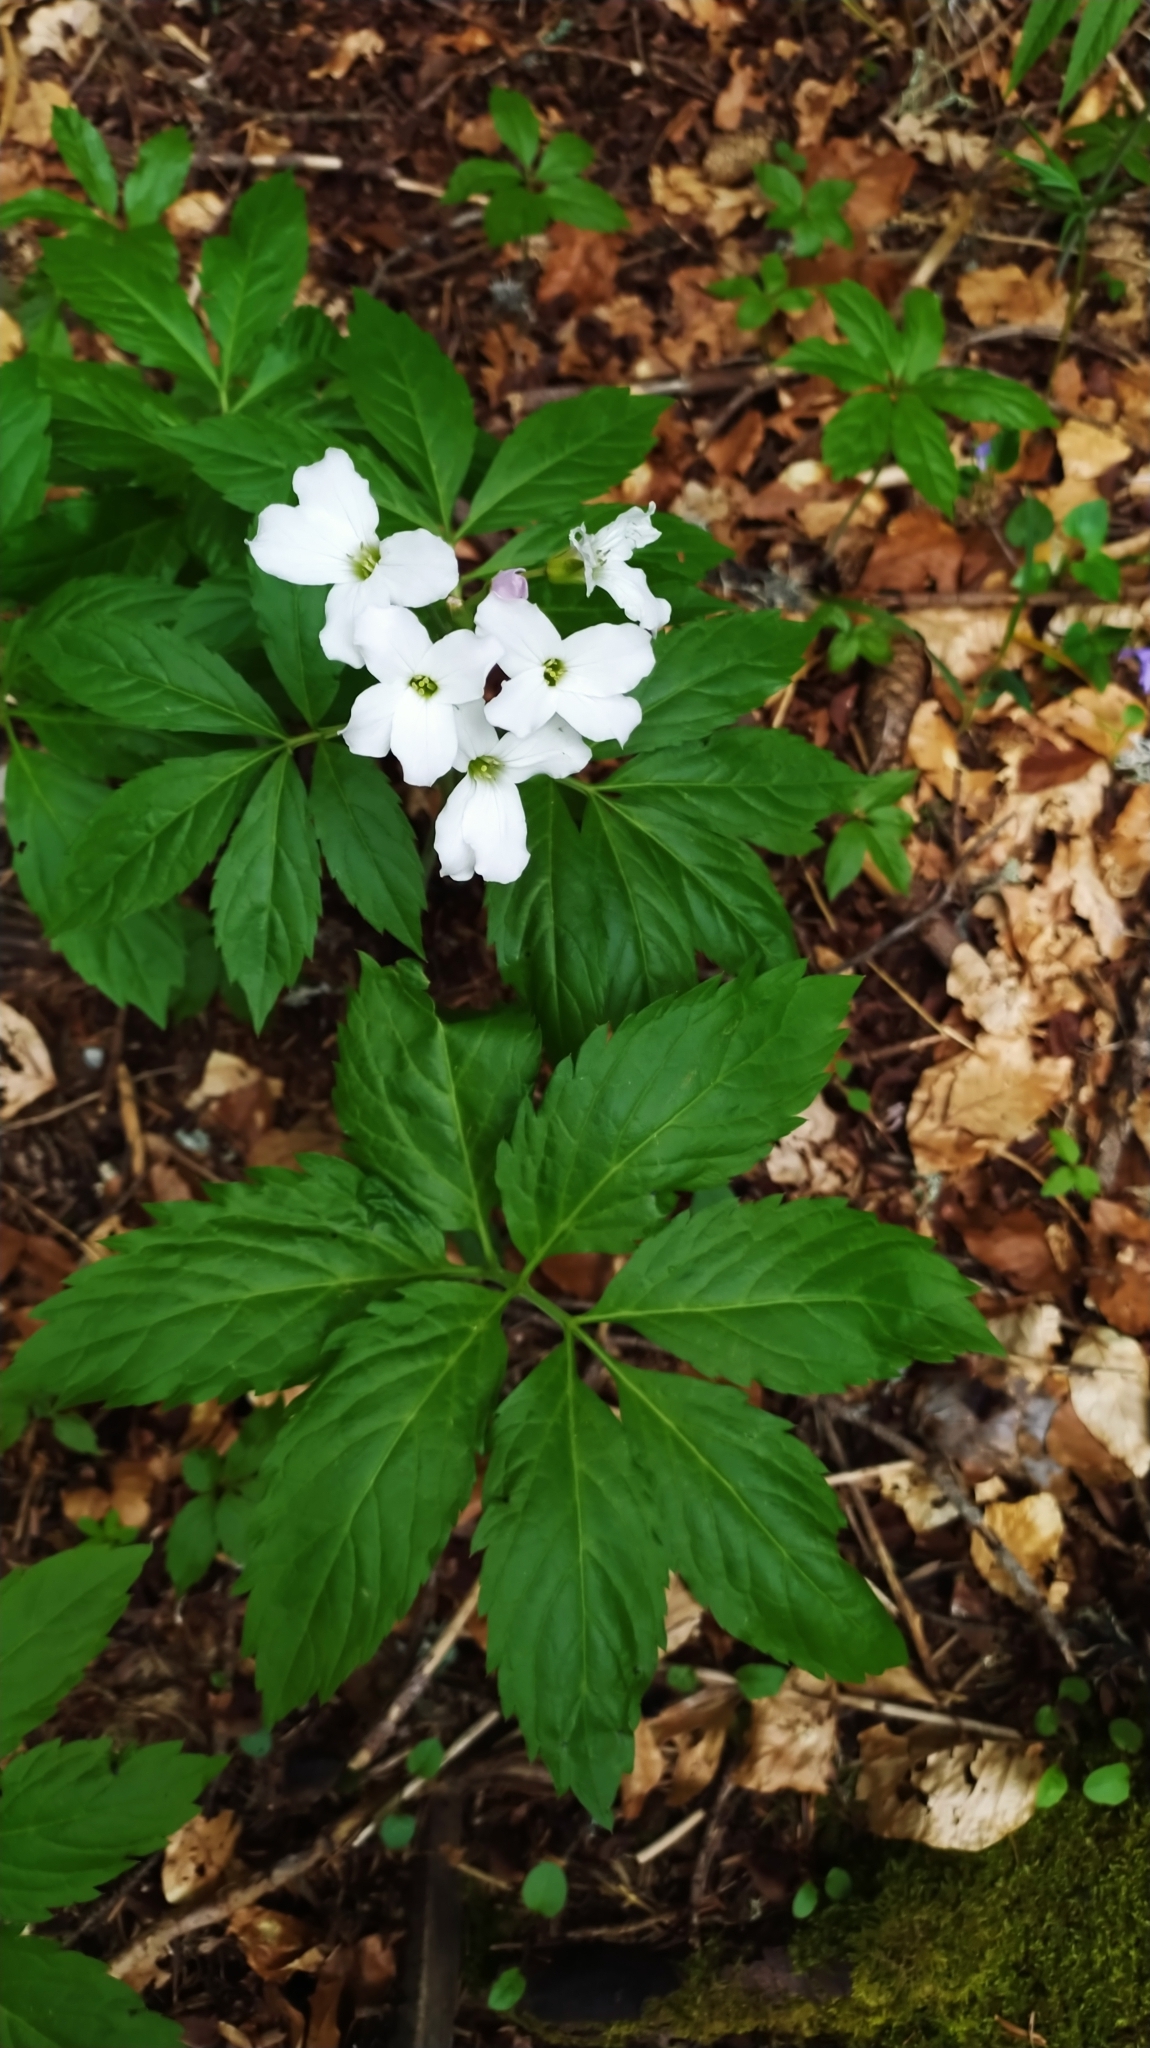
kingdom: Plantae
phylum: Tracheophyta
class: Magnoliopsida
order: Brassicales
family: Brassicaceae
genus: Cardamine
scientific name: Cardamine heptaphylla
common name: Pinnate coralroot
